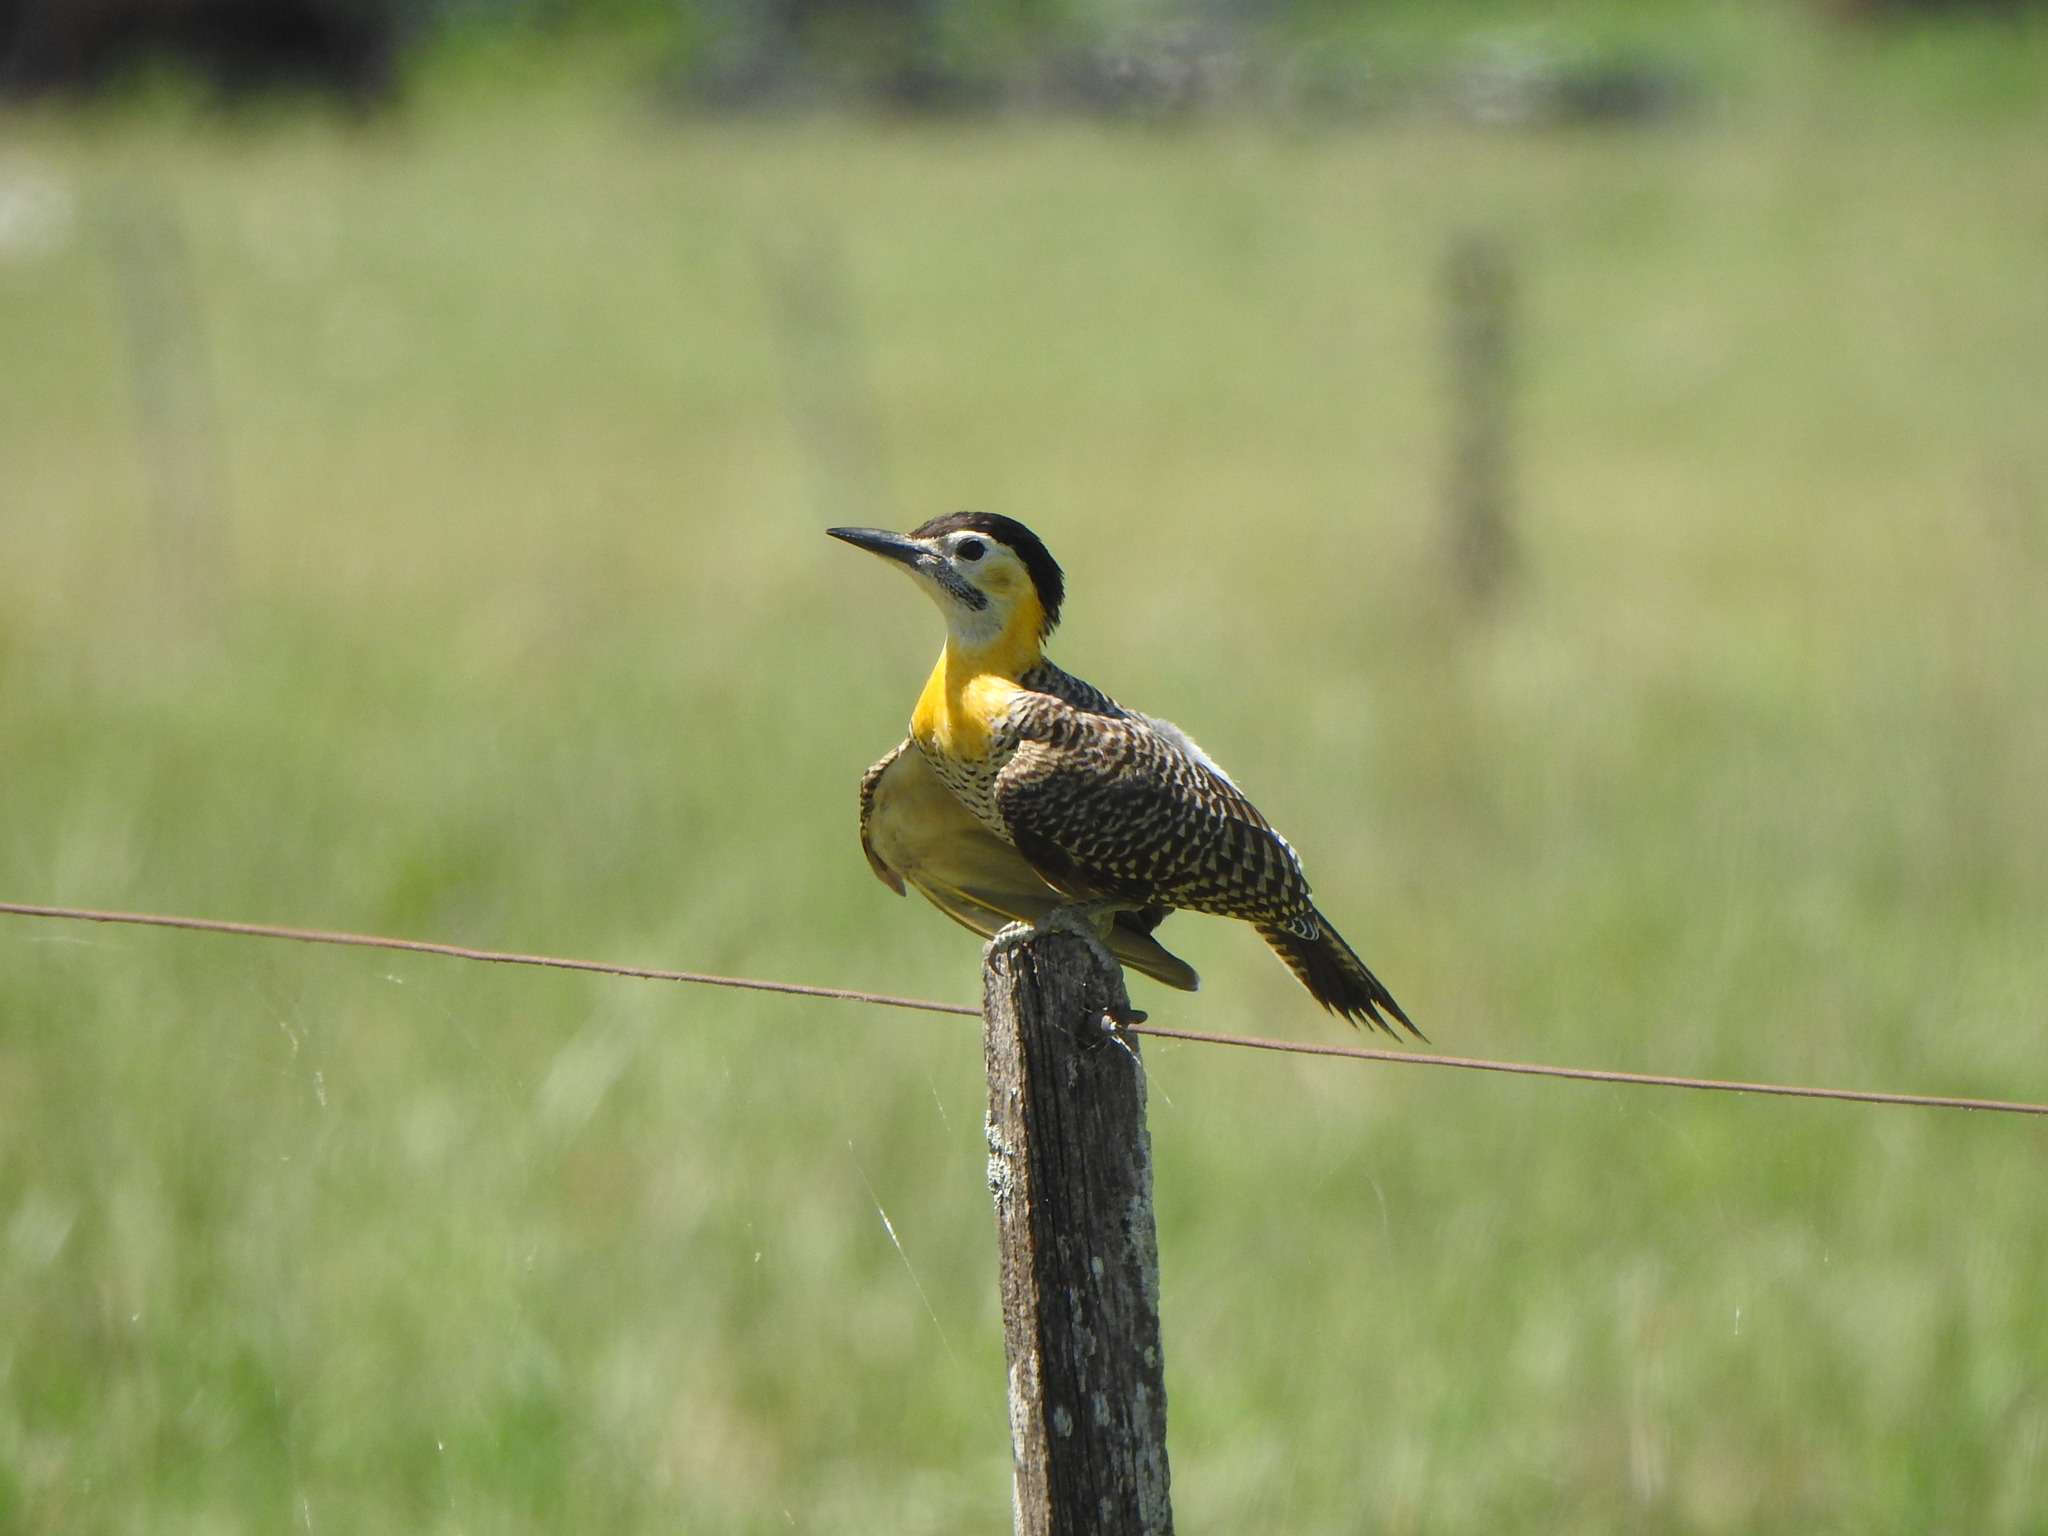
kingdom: Animalia
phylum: Chordata
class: Aves
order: Piciformes
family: Picidae
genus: Colaptes
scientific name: Colaptes campestris
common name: Campo flicker
